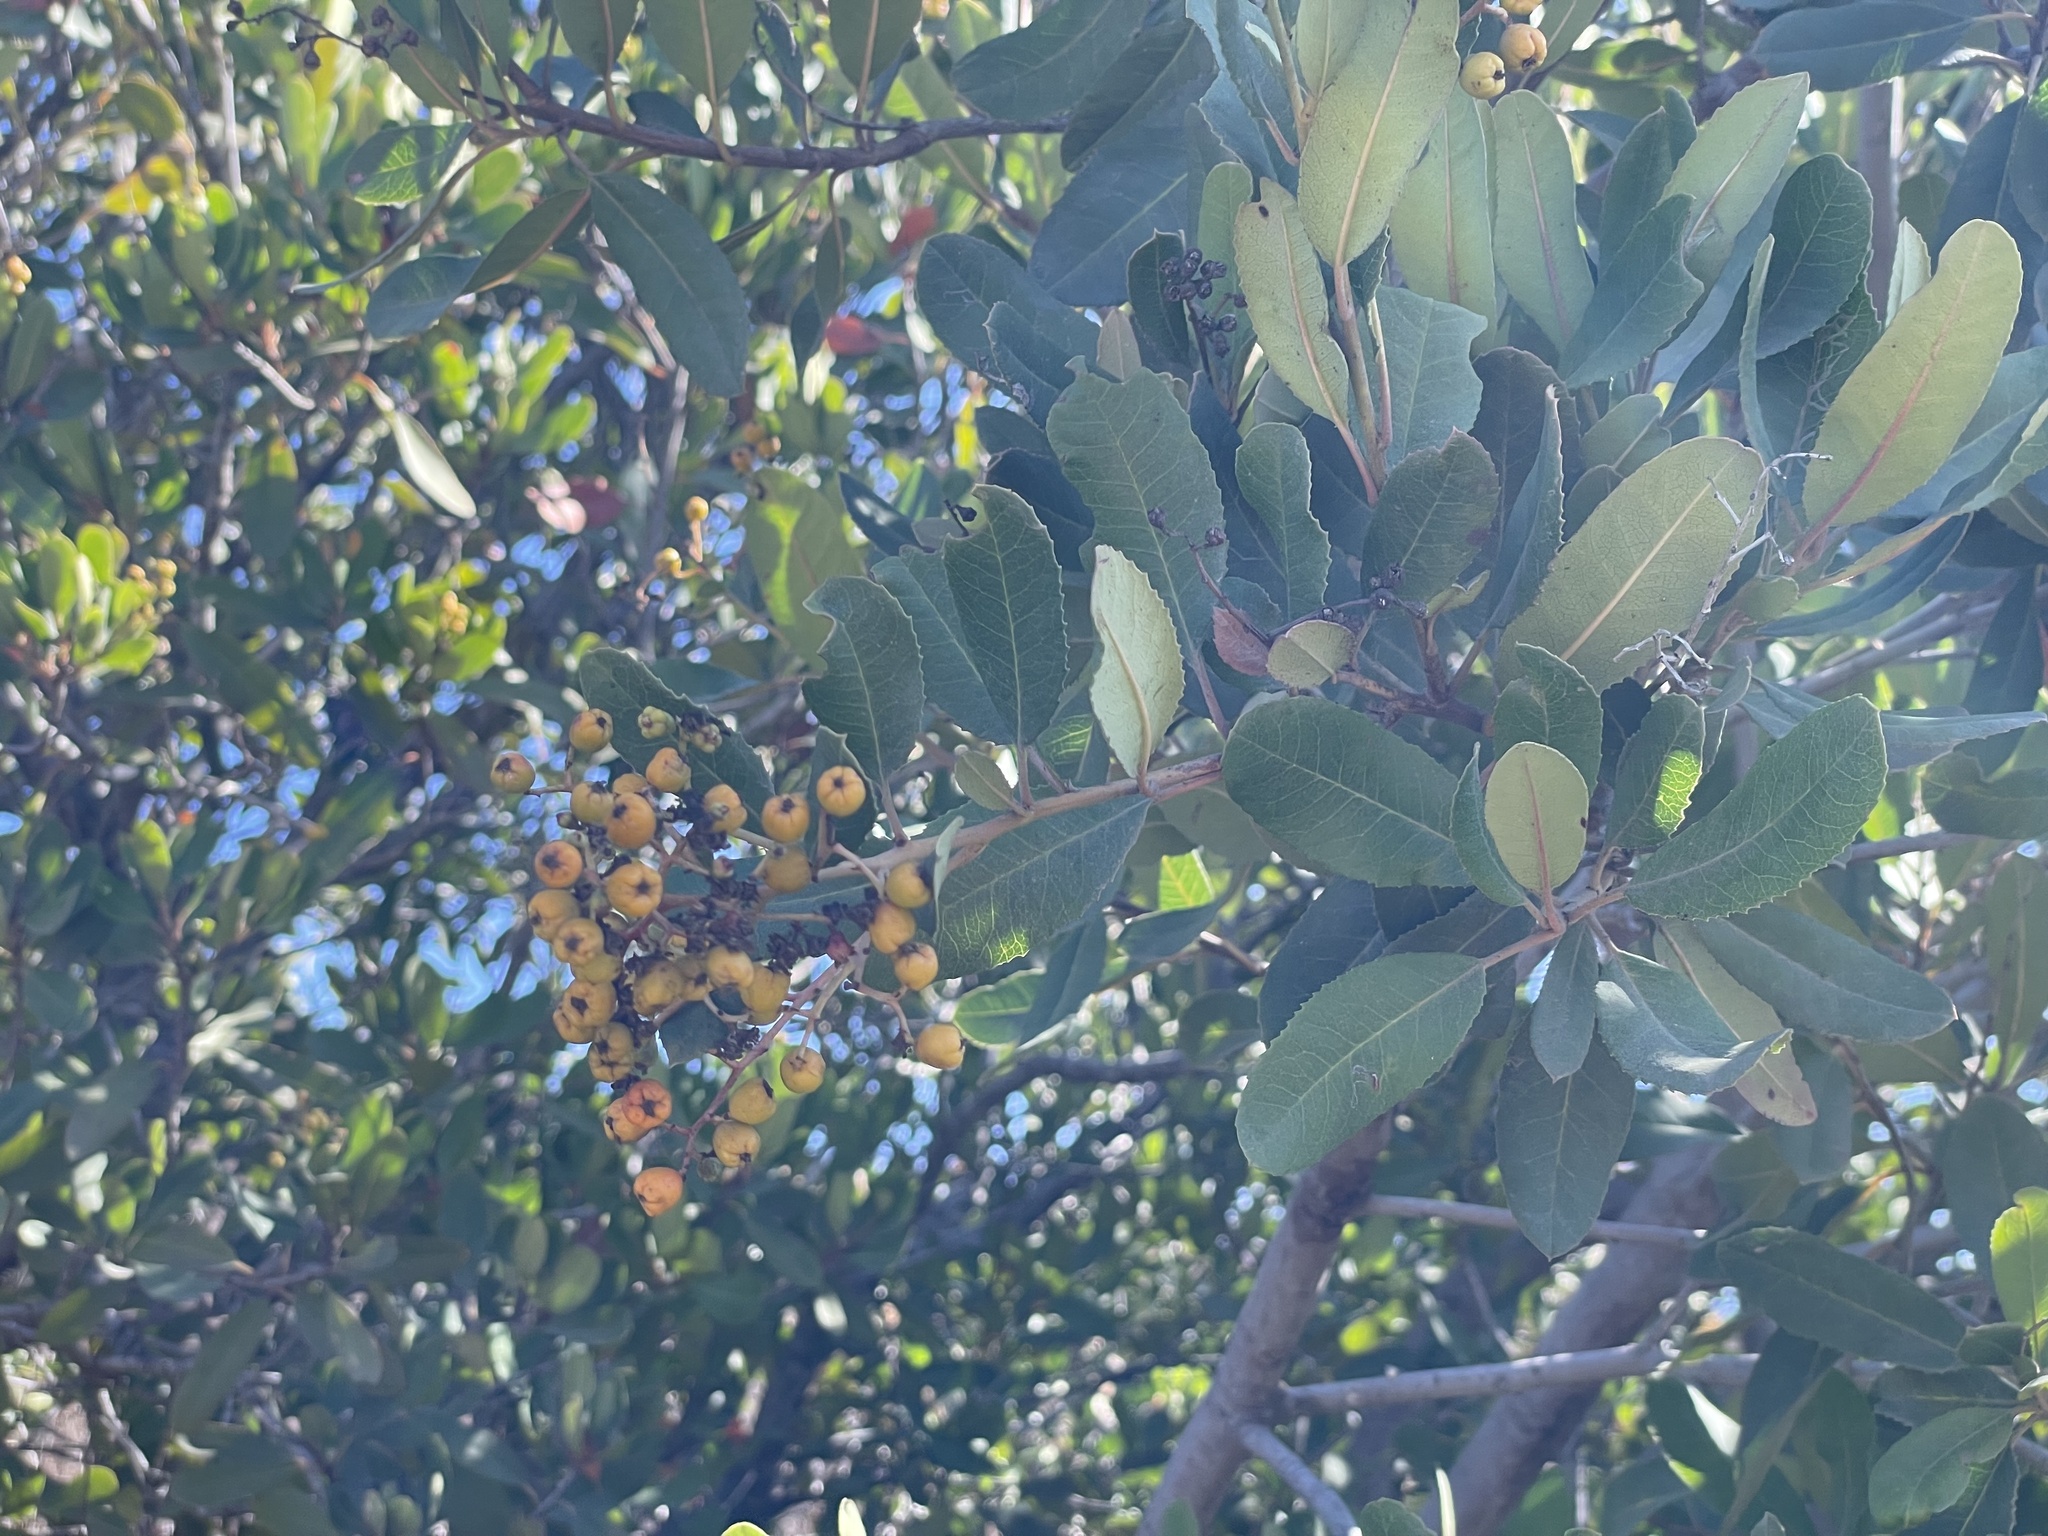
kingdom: Plantae
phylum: Tracheophyta
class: Magnoliopsida
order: Rosales
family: Rosaceae
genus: Heteromeles
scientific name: Heteromeles arbutifolia
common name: California-holly
